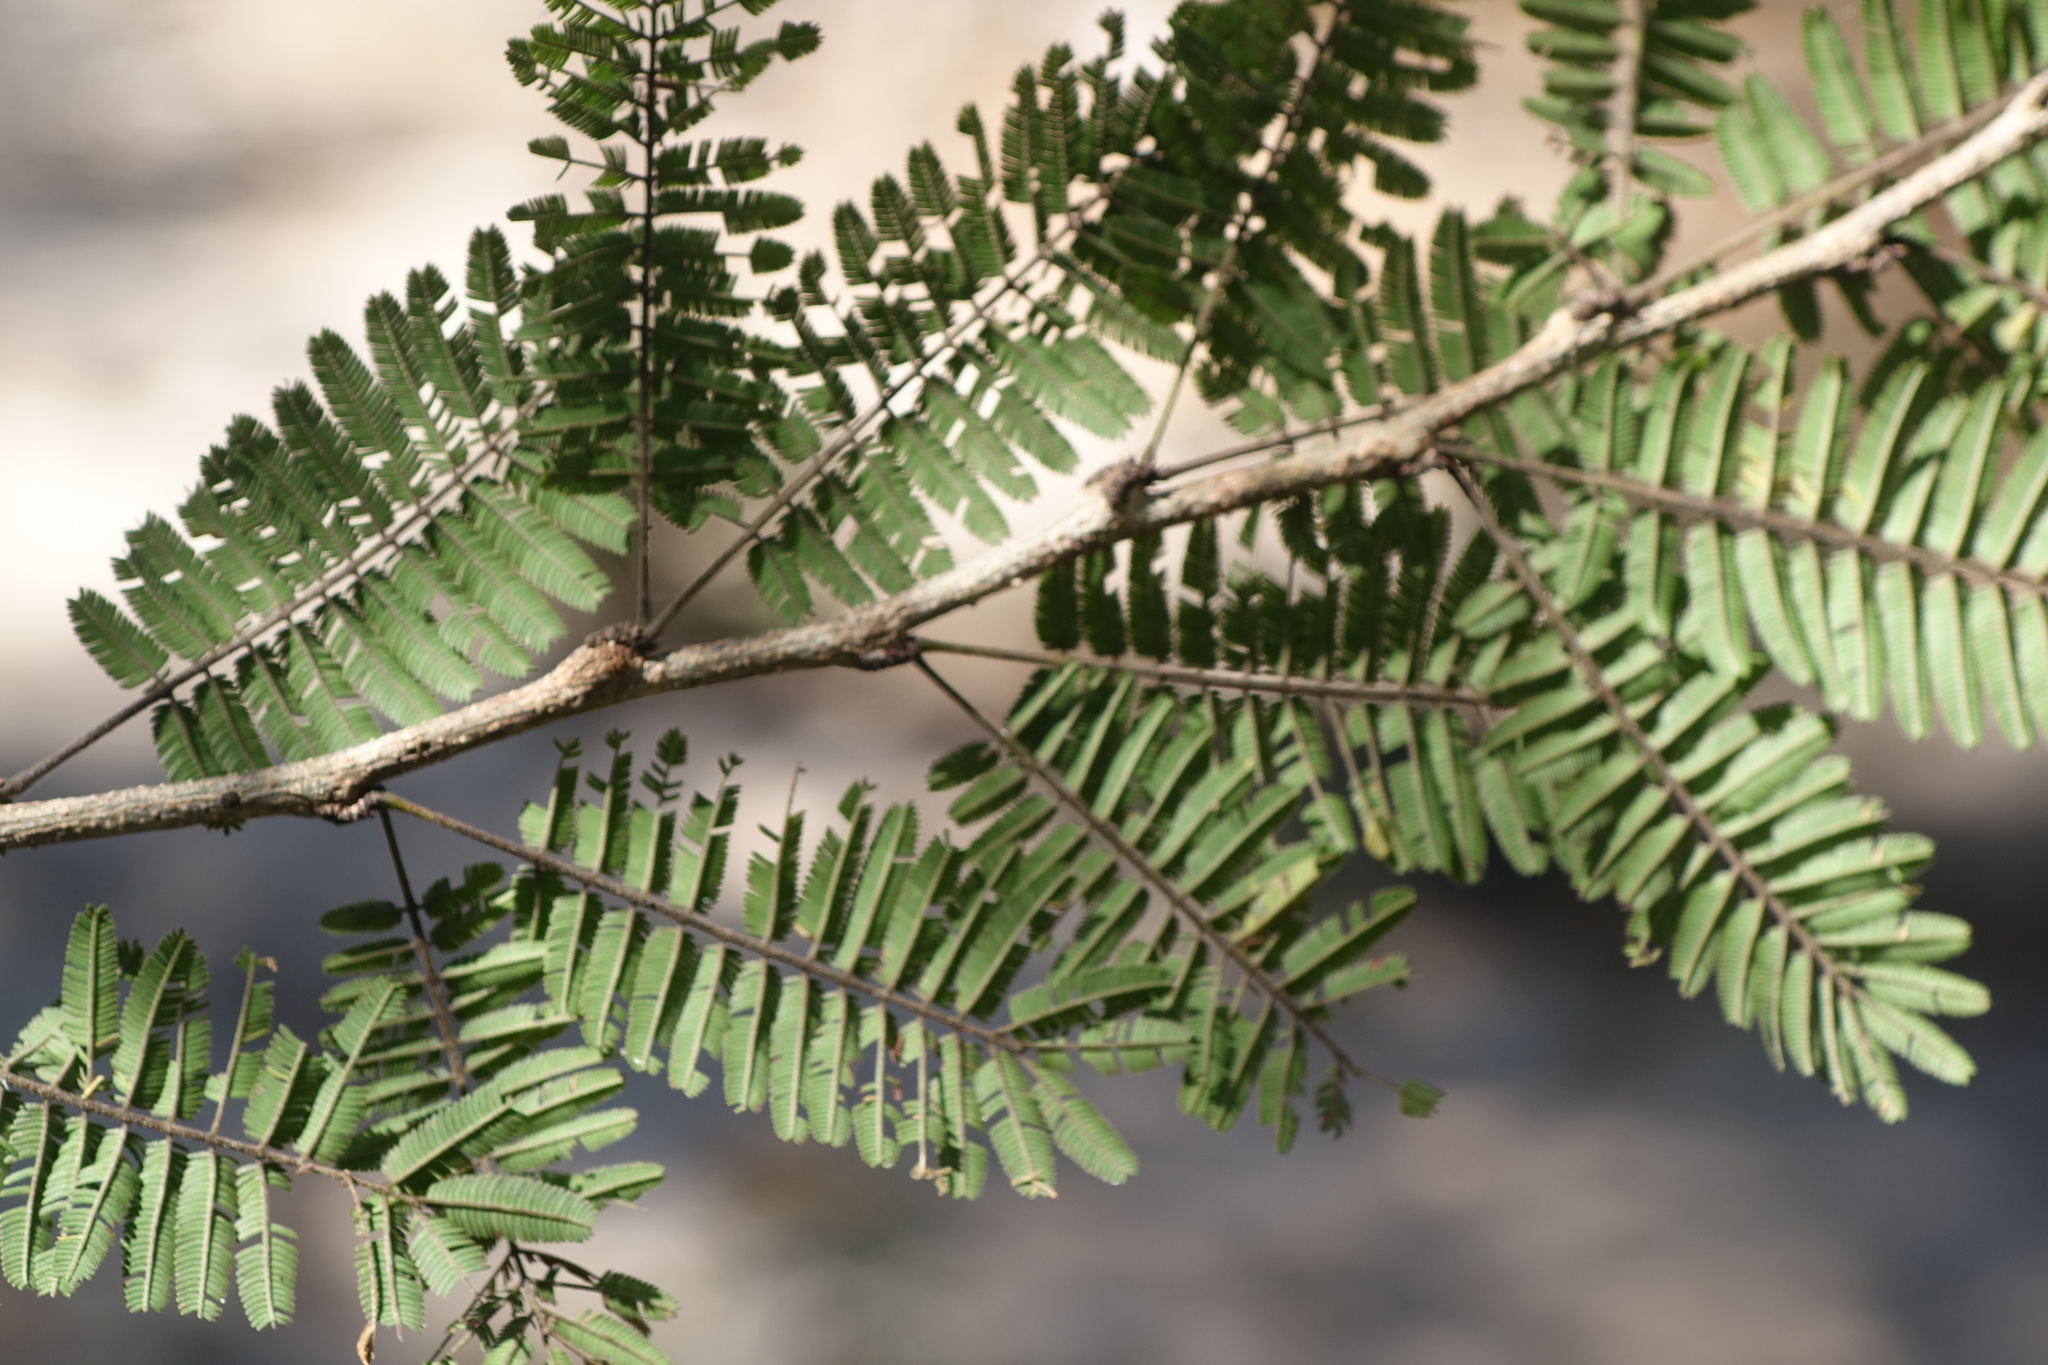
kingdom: Plantae
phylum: Tracheophyta
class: Magnoliopsida
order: Fabales
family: Fabaceae
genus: Dichrostachys
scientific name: Dichrostachys akataensis
